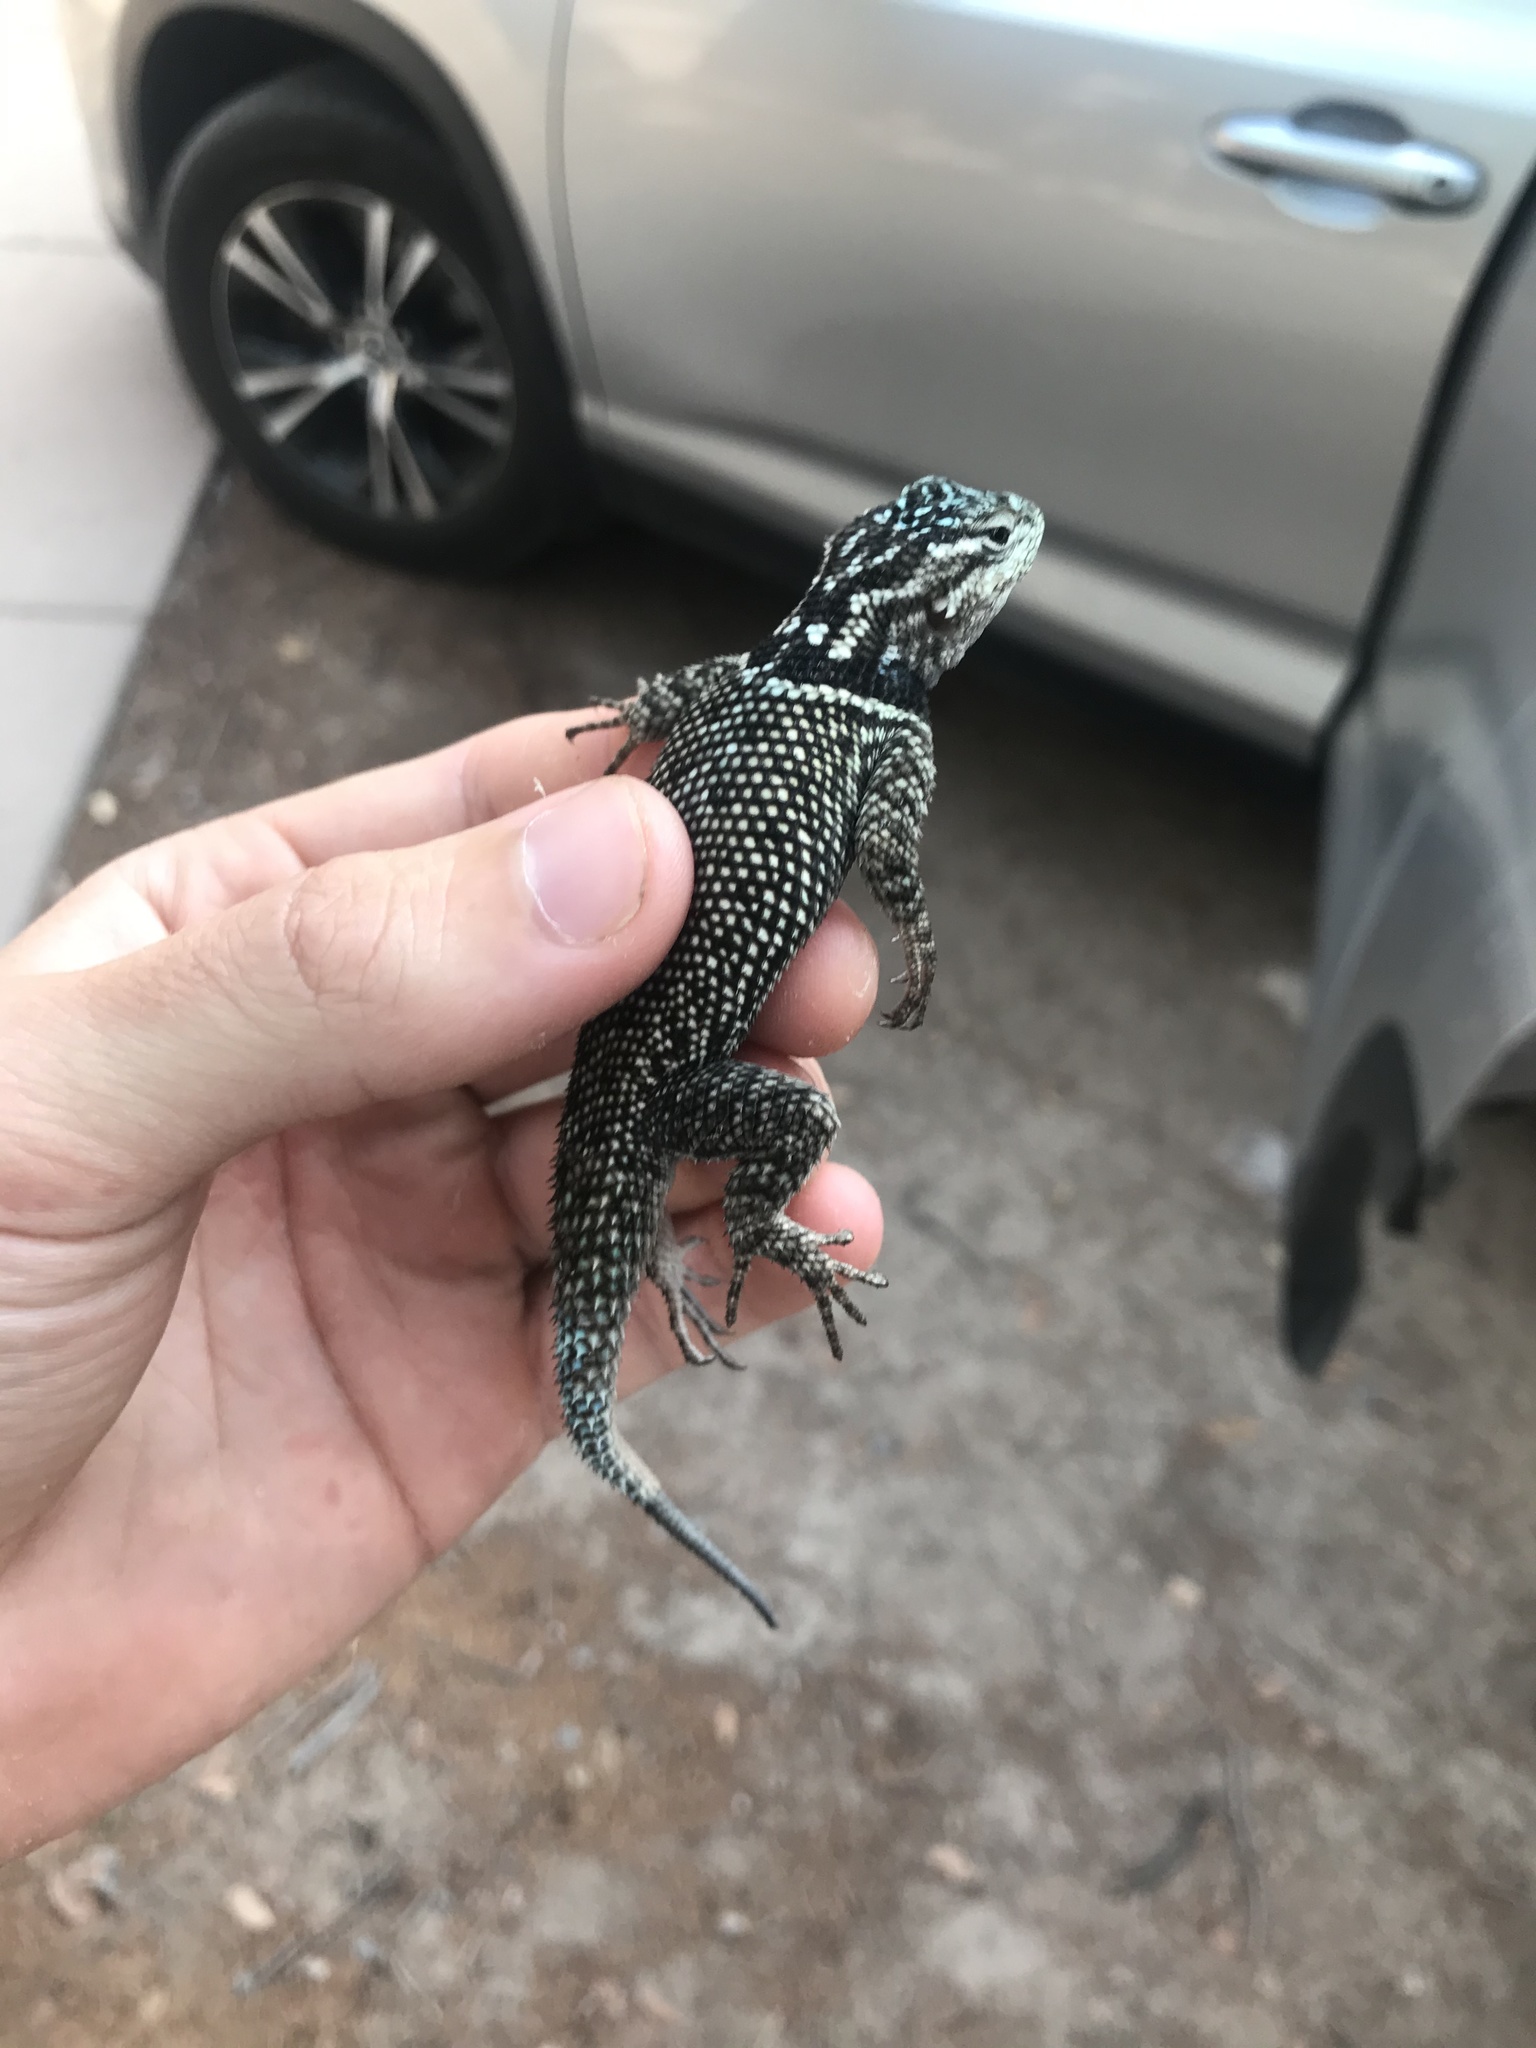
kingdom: Animalia
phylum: Chordata
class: Squamata
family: Phrynosomatidae
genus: Sceloporus
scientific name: Sceloporus jarrovii
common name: Yarrow's spiny lizard
